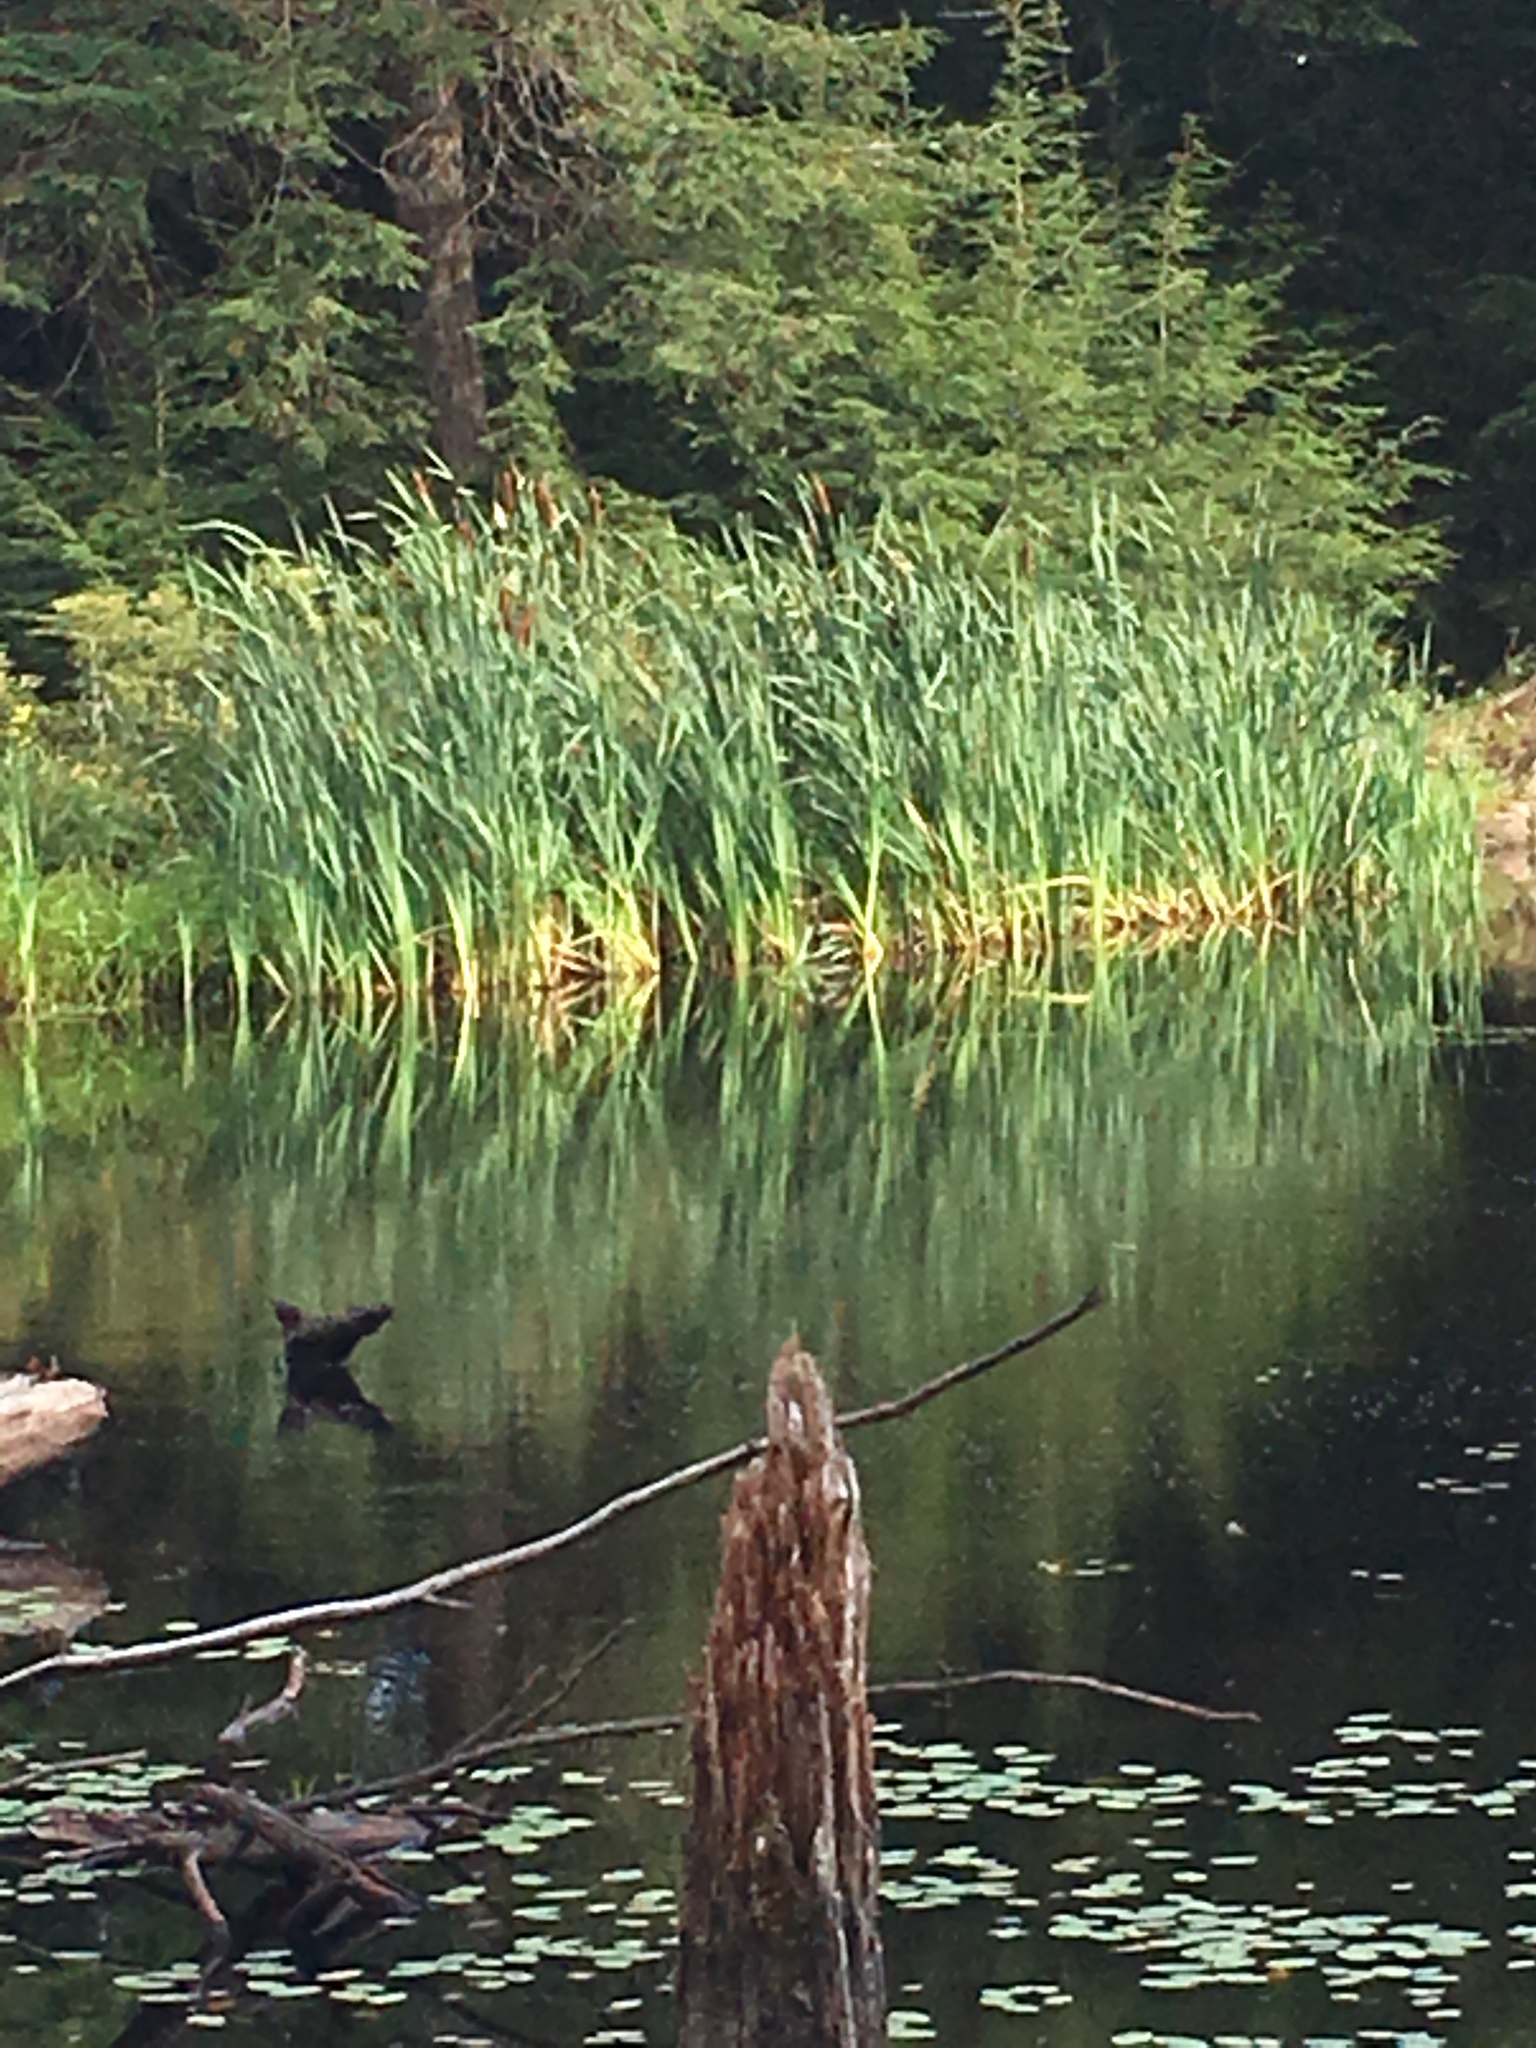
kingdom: Plantae
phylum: Tracheophyta
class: Liliopsida
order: Poales
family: Typhaceae
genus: Typha
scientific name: Typha latifolia
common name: Broadleaf cattail
